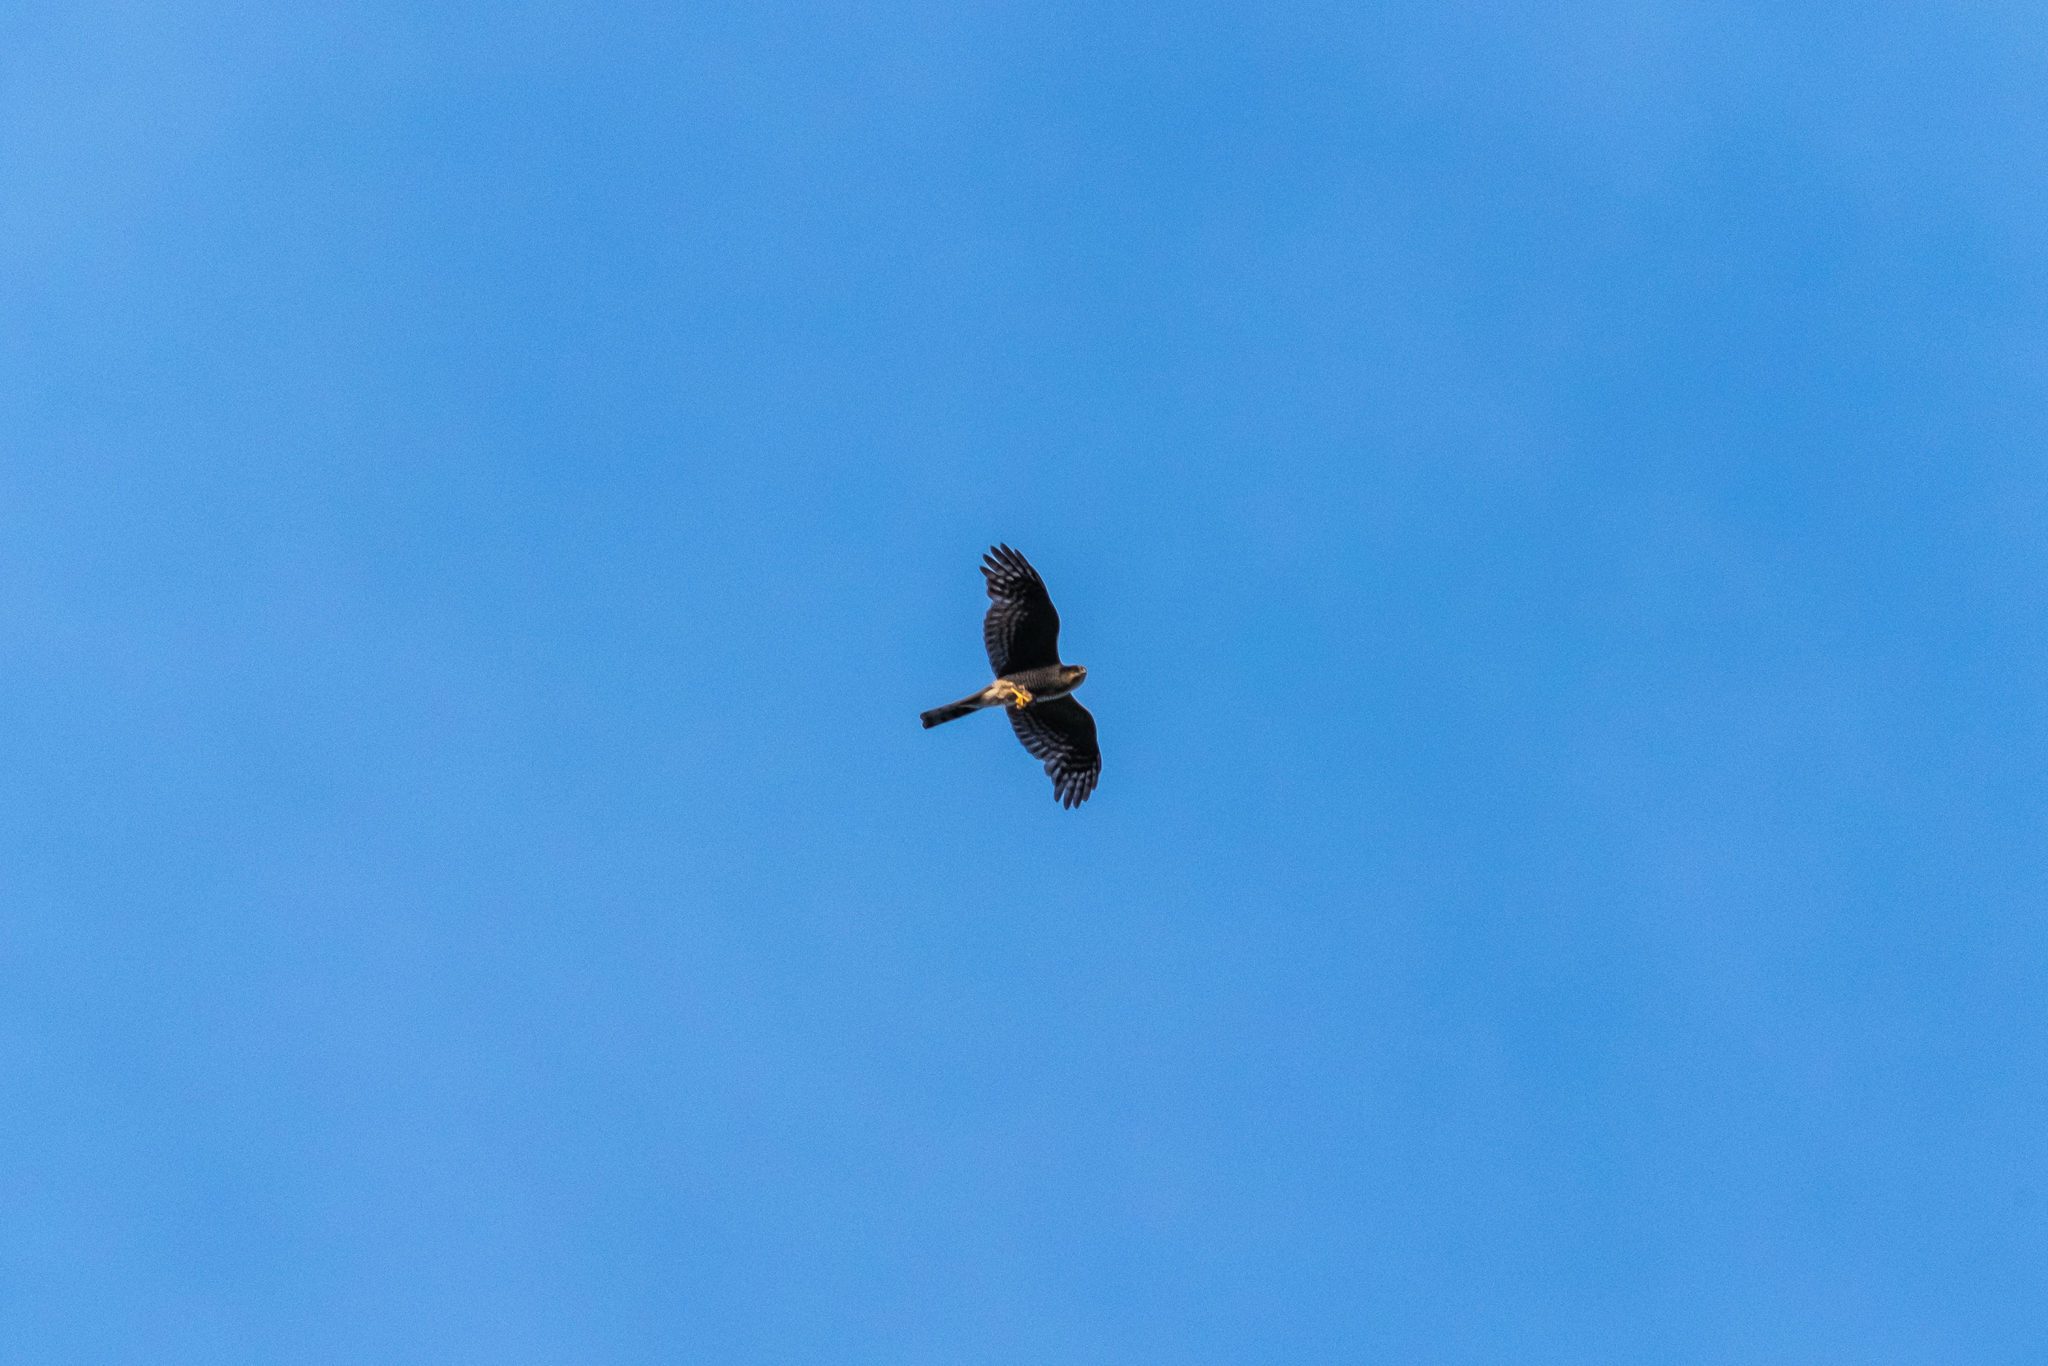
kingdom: Animalia
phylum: Chordata
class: Aves
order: Accipitriformes
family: Accipitridae
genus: Accipiter
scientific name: Accipiter nisus
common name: Eurasian sparrowhawk
